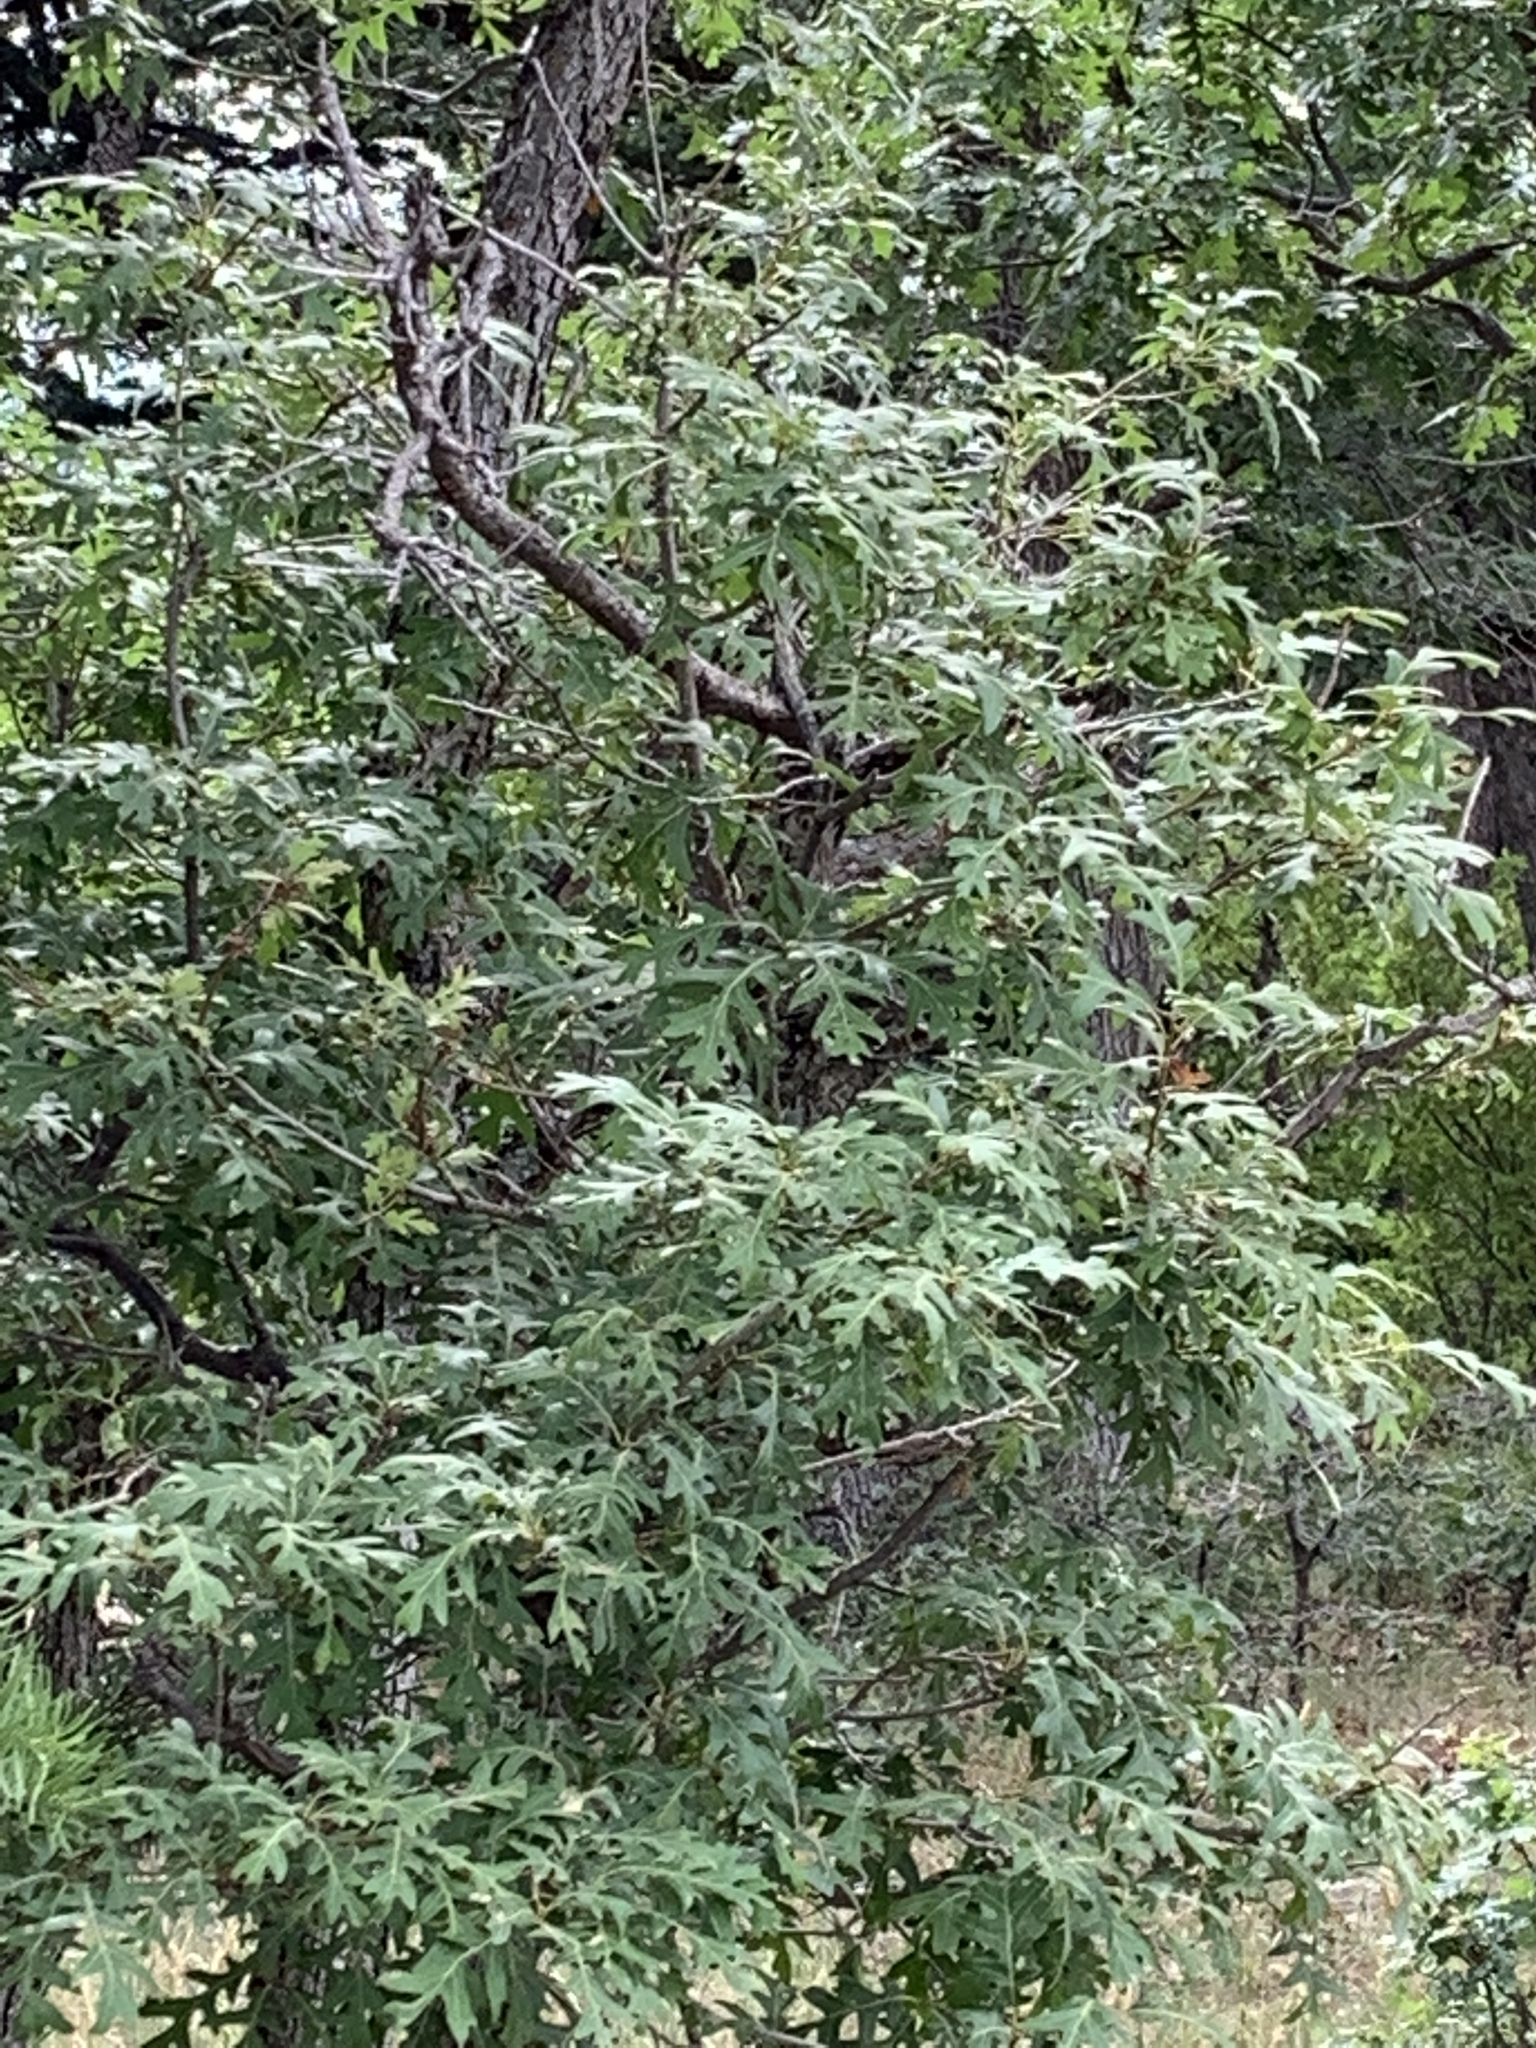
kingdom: Plantae
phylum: Tracheophyta
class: Magnoliopsida
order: Fagales
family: Fagaceae
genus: Quercus
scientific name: Quercus gambelii
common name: Gambel oak
